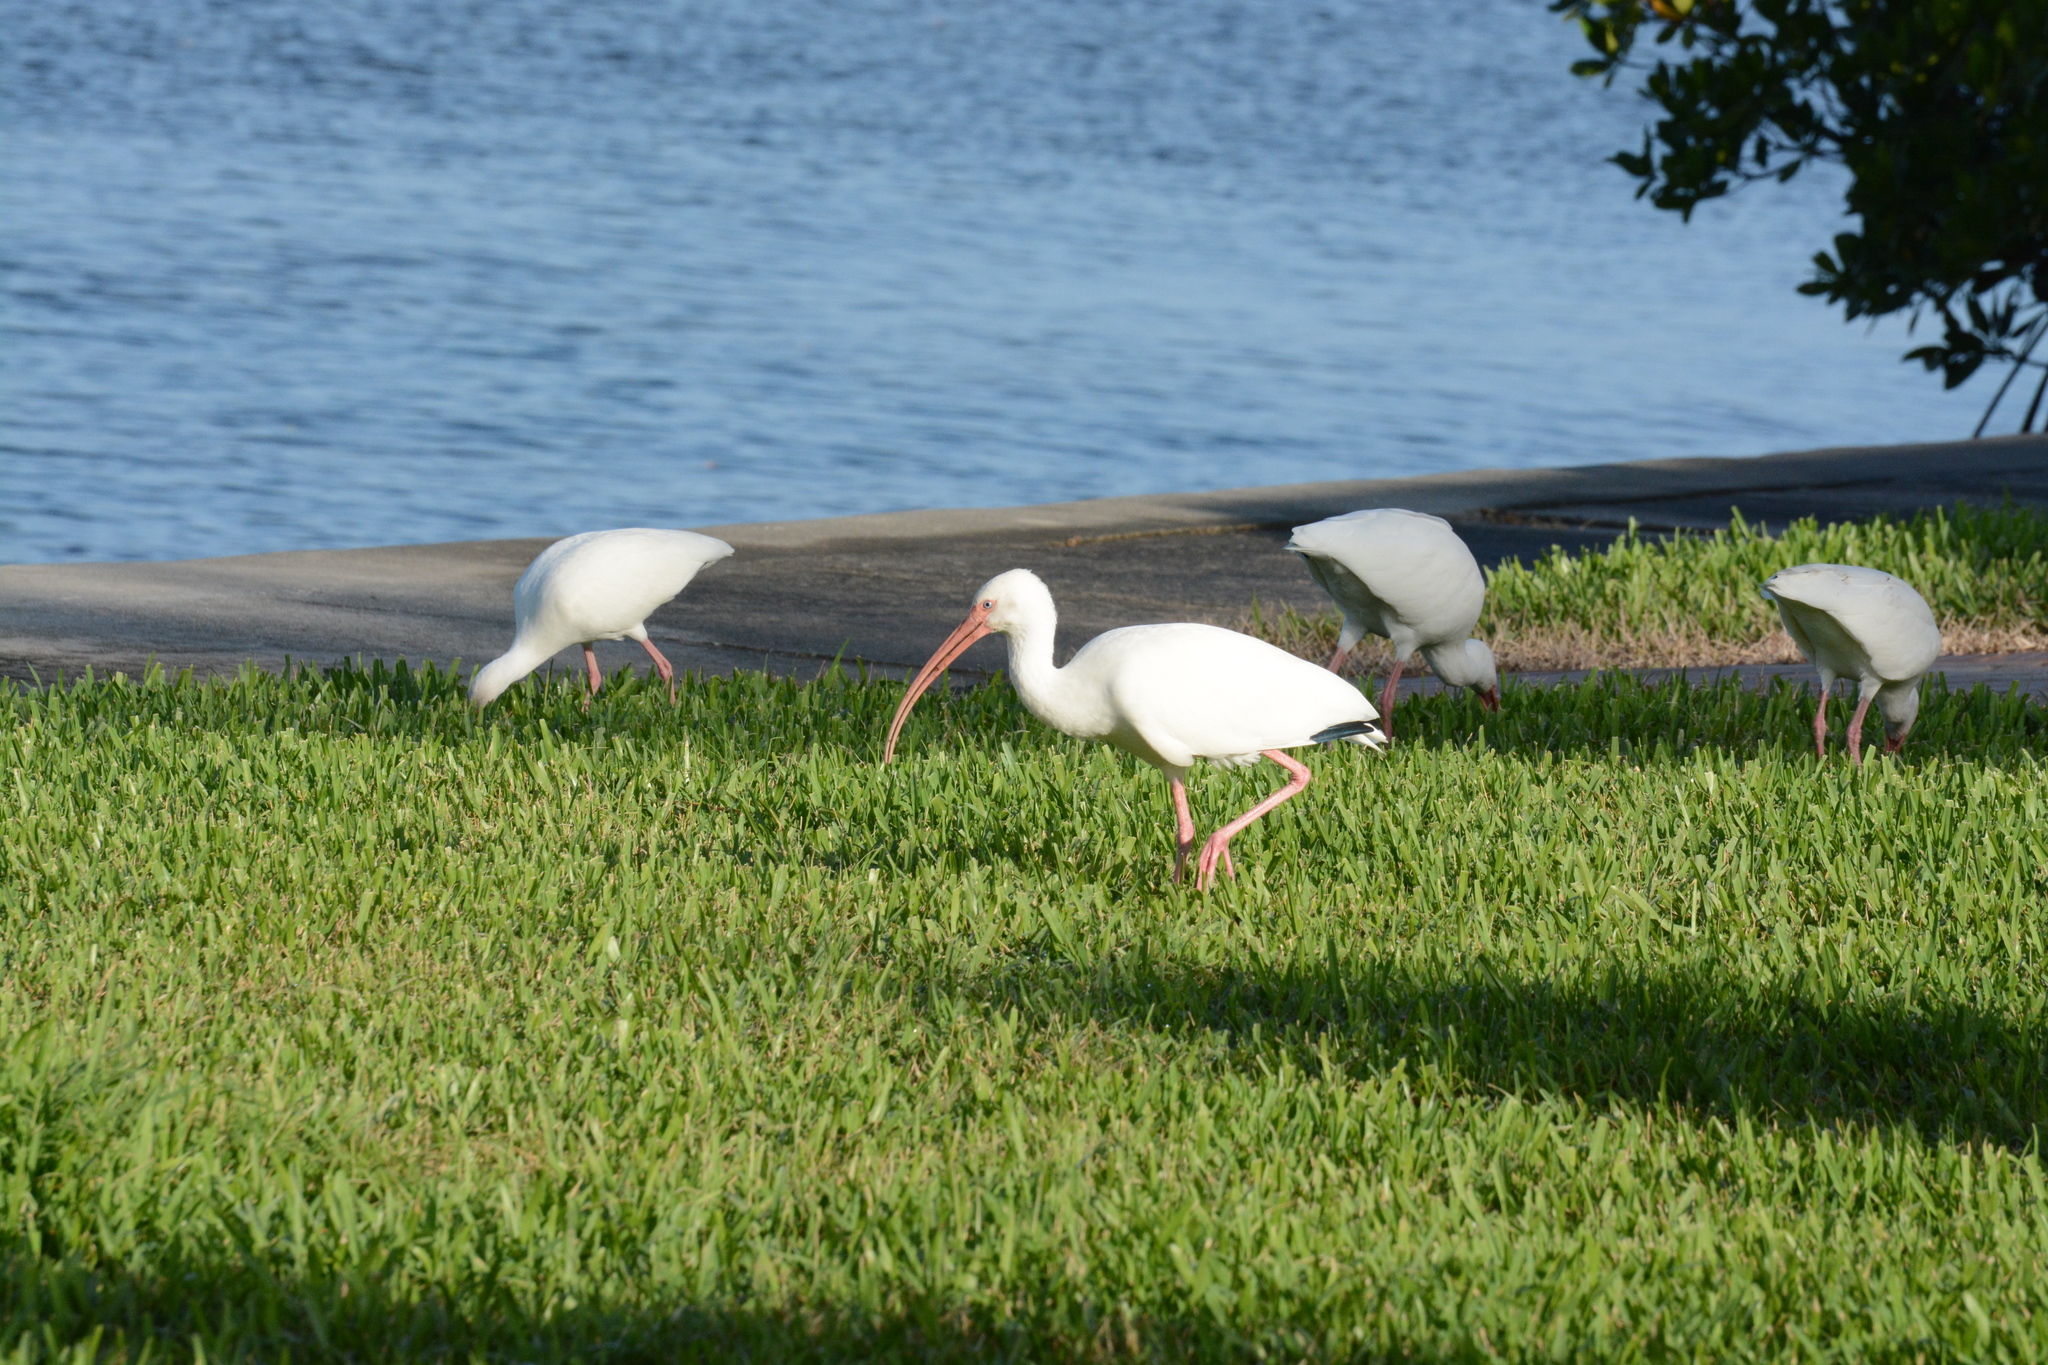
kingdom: Animalia
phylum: Chordata
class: Aves
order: Pelecaniformes
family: Threskiornithidae
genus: Eudocimus
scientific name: Eudocimus albus
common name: White ibis
